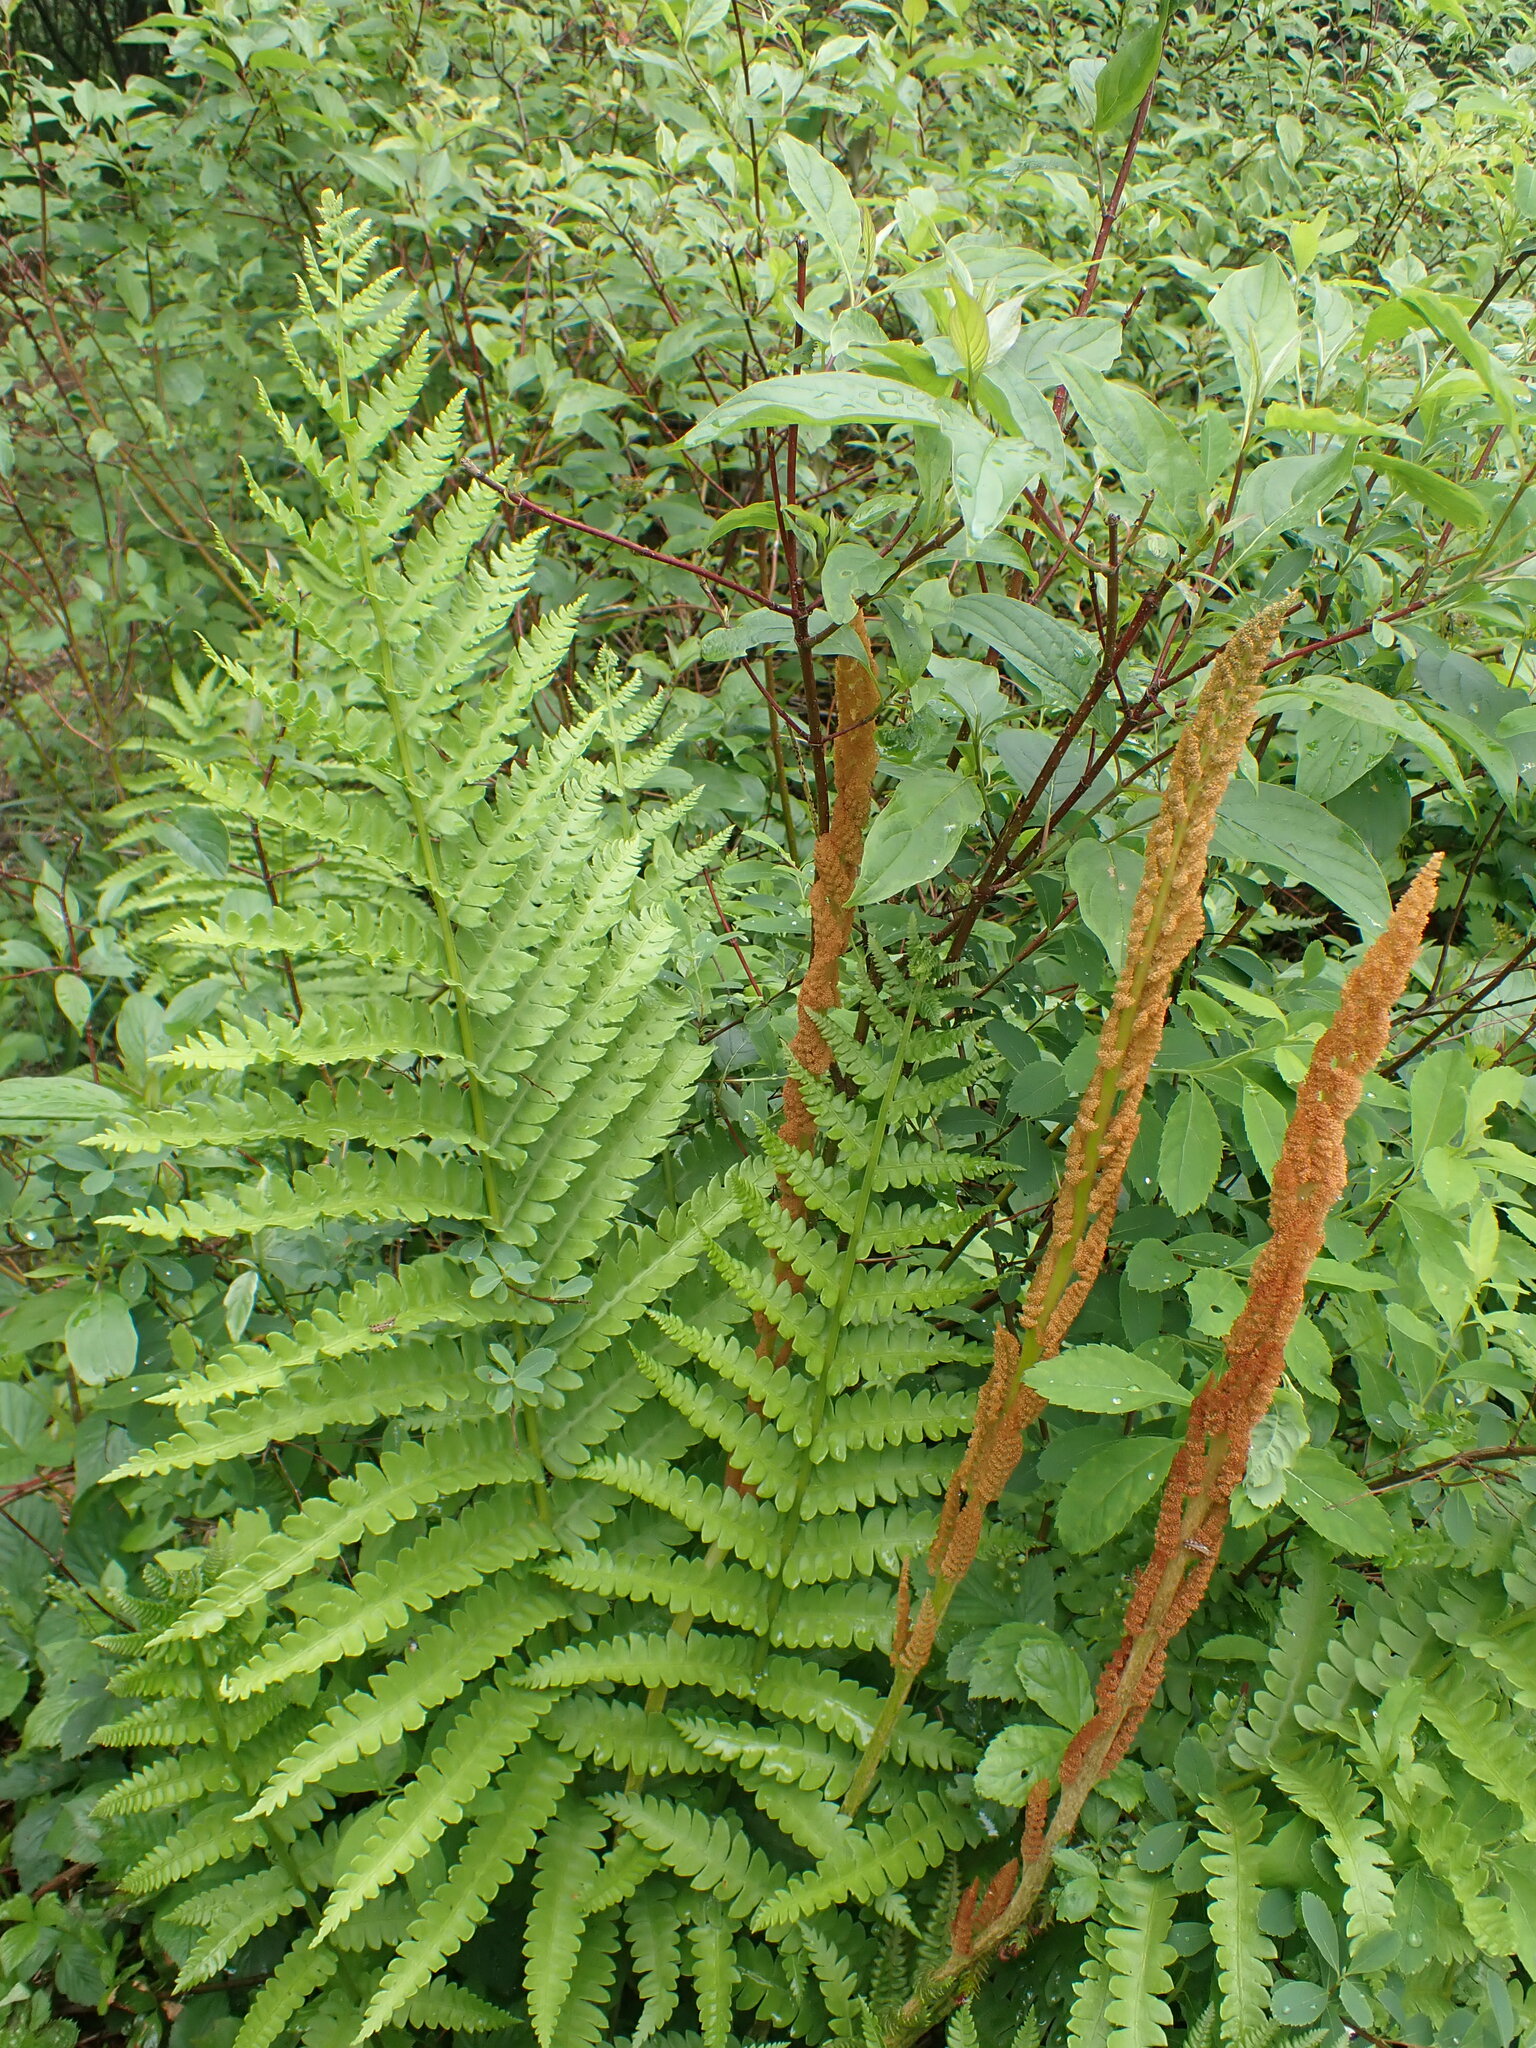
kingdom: Plantae
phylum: Tracheophyta
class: Polypodiopsida
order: Osmundales
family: Osmundaceae
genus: Osmundastrum
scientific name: Osmundastrum cinnamomeum
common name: Cinnamon fern
